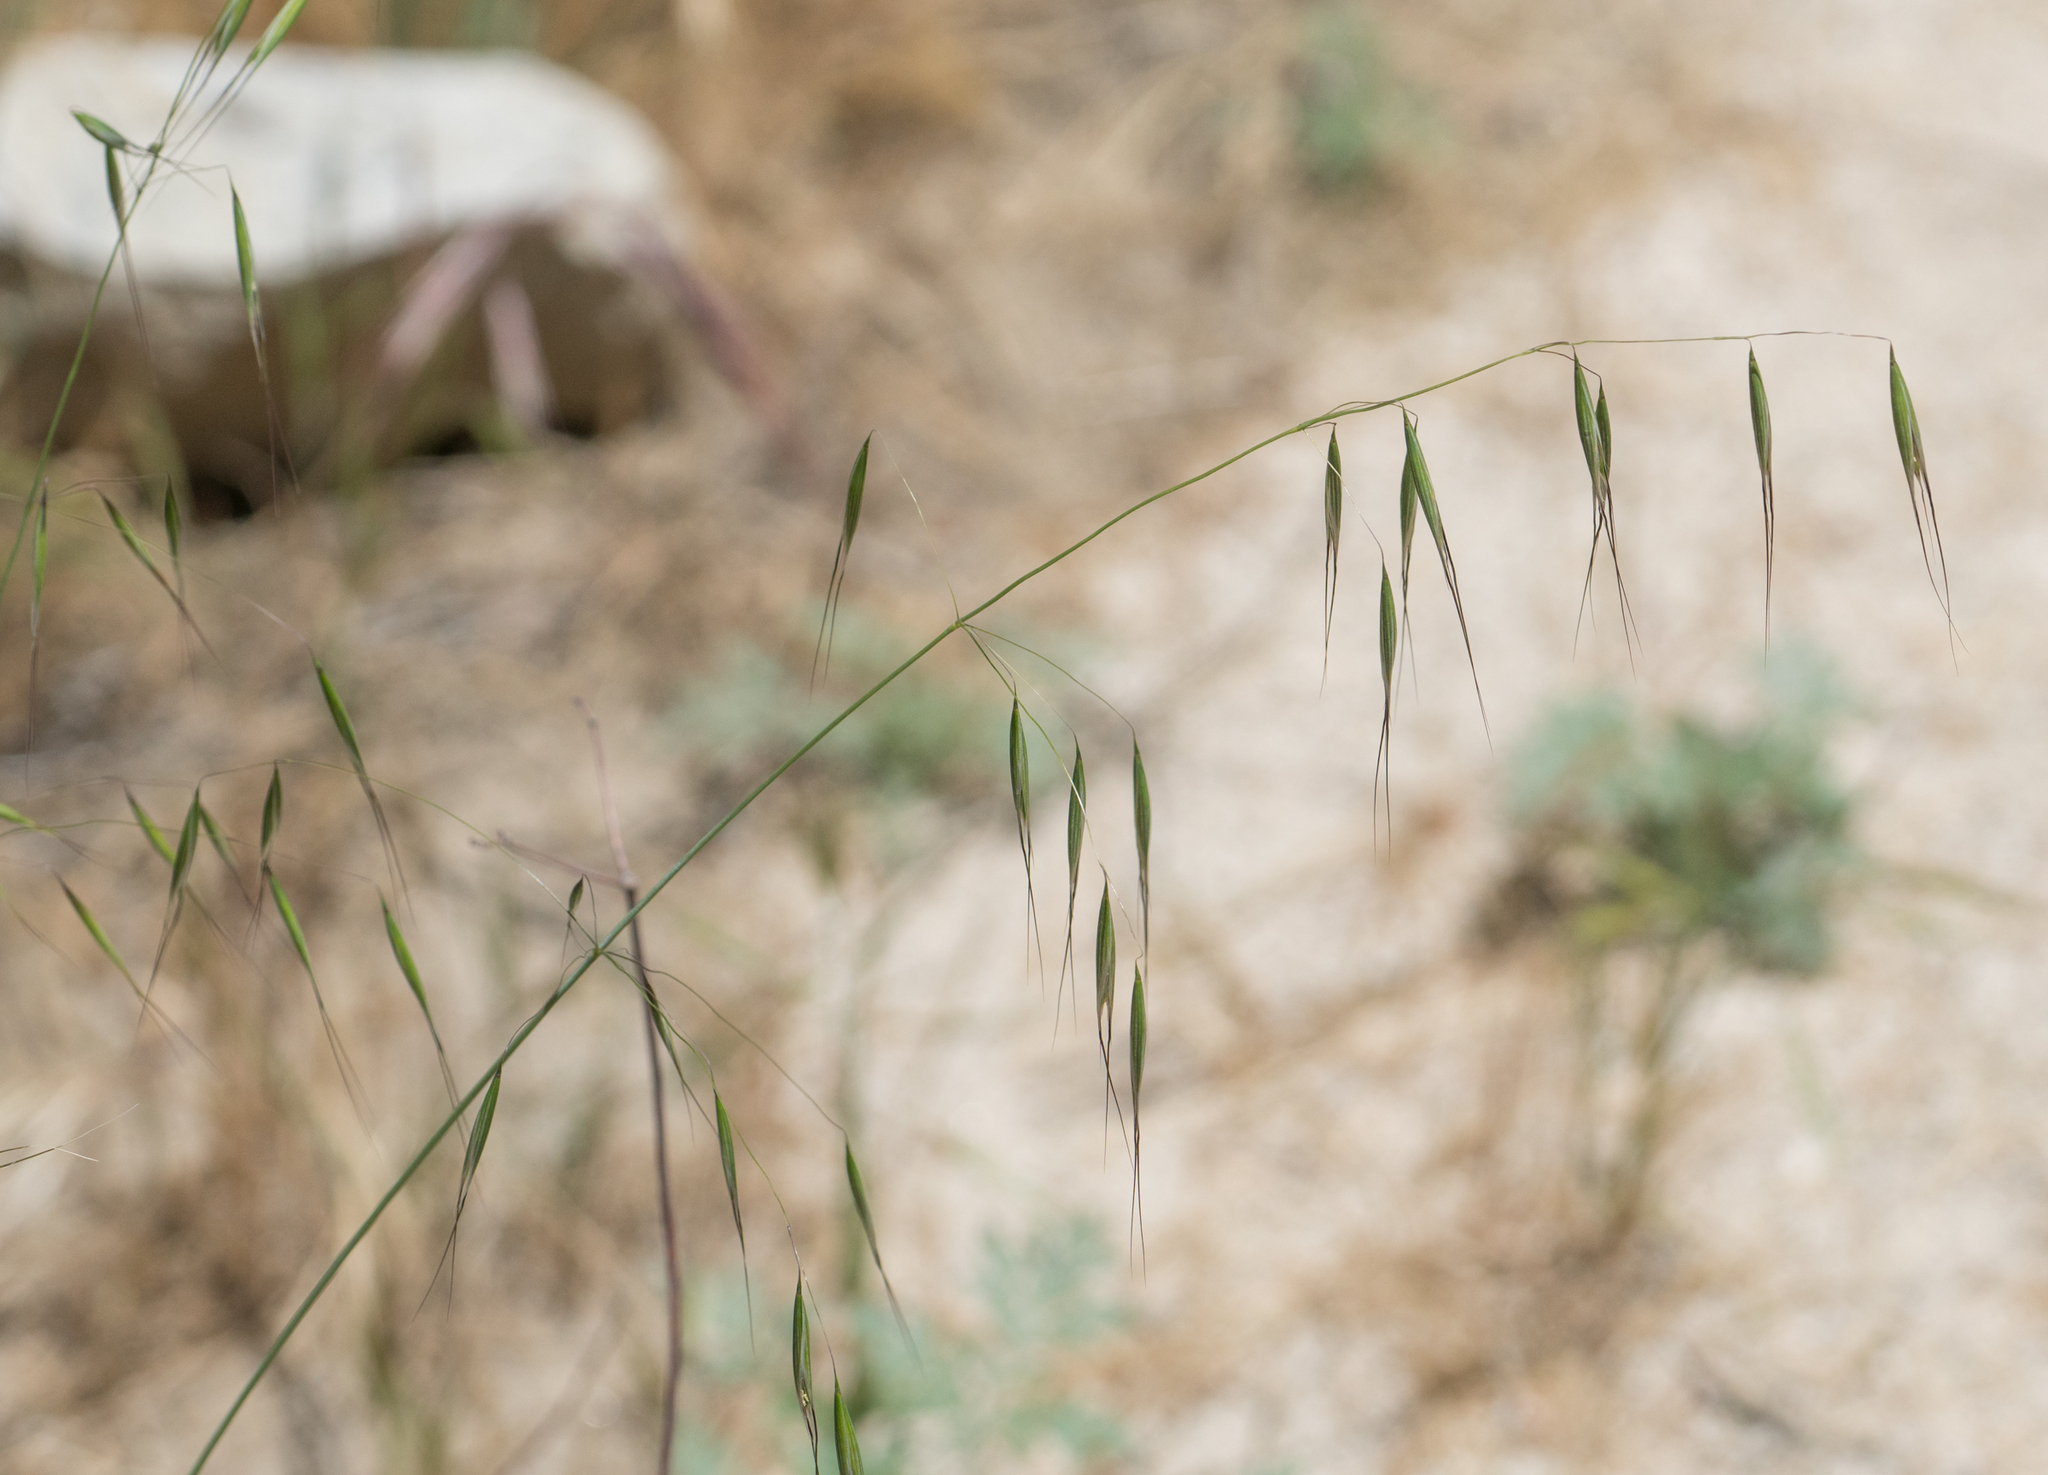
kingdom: Plantae
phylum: Tracheophyta
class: Liliopsida
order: Poales
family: Poaceae
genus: Avena
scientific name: Avena barbata
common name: Slender oat
